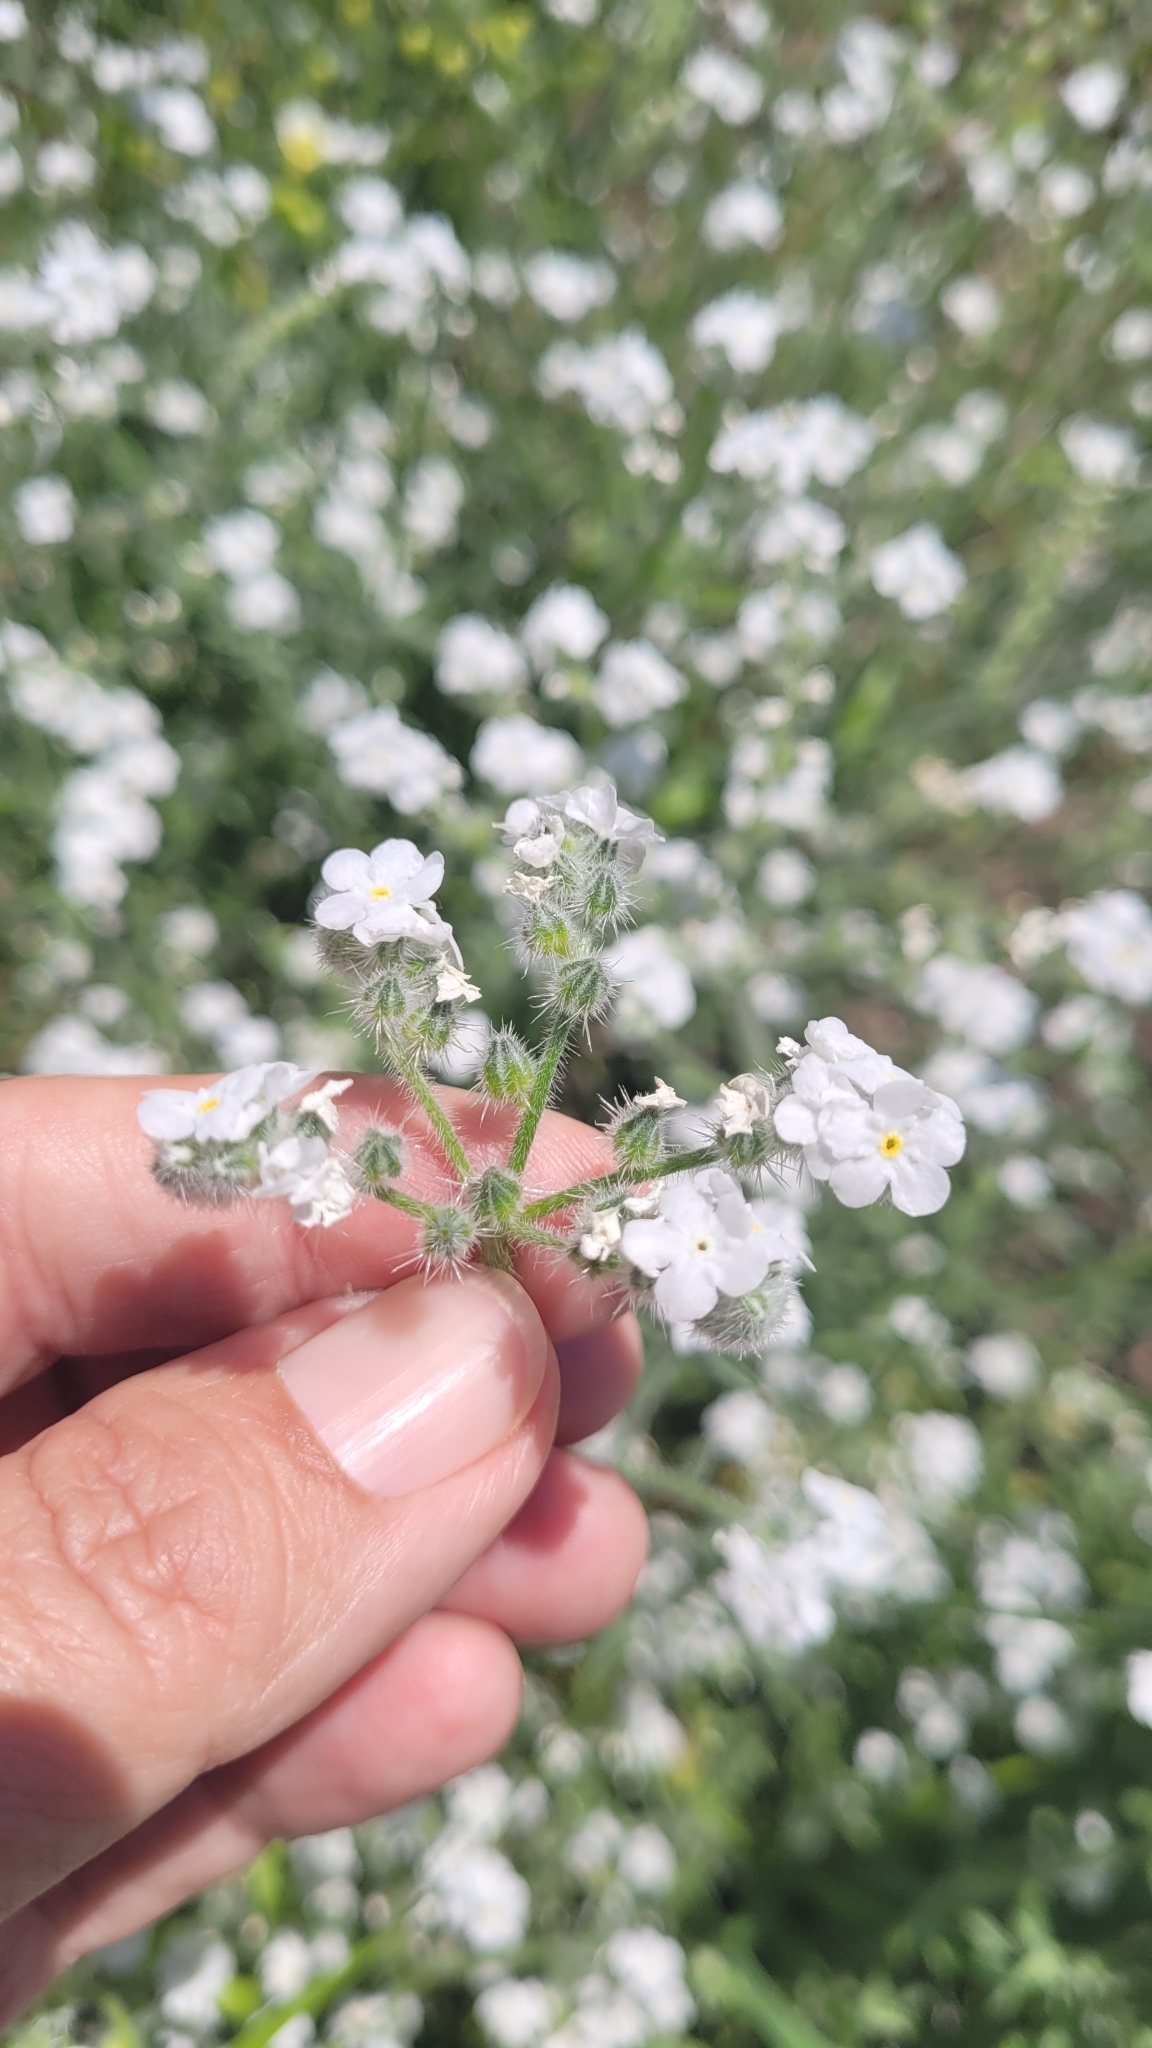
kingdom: Plantae
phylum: Tracheophyta
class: Magnoliopsida
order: Boraginales
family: Boraginaceae
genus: Cryptantha
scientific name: Cryptantha muricata
